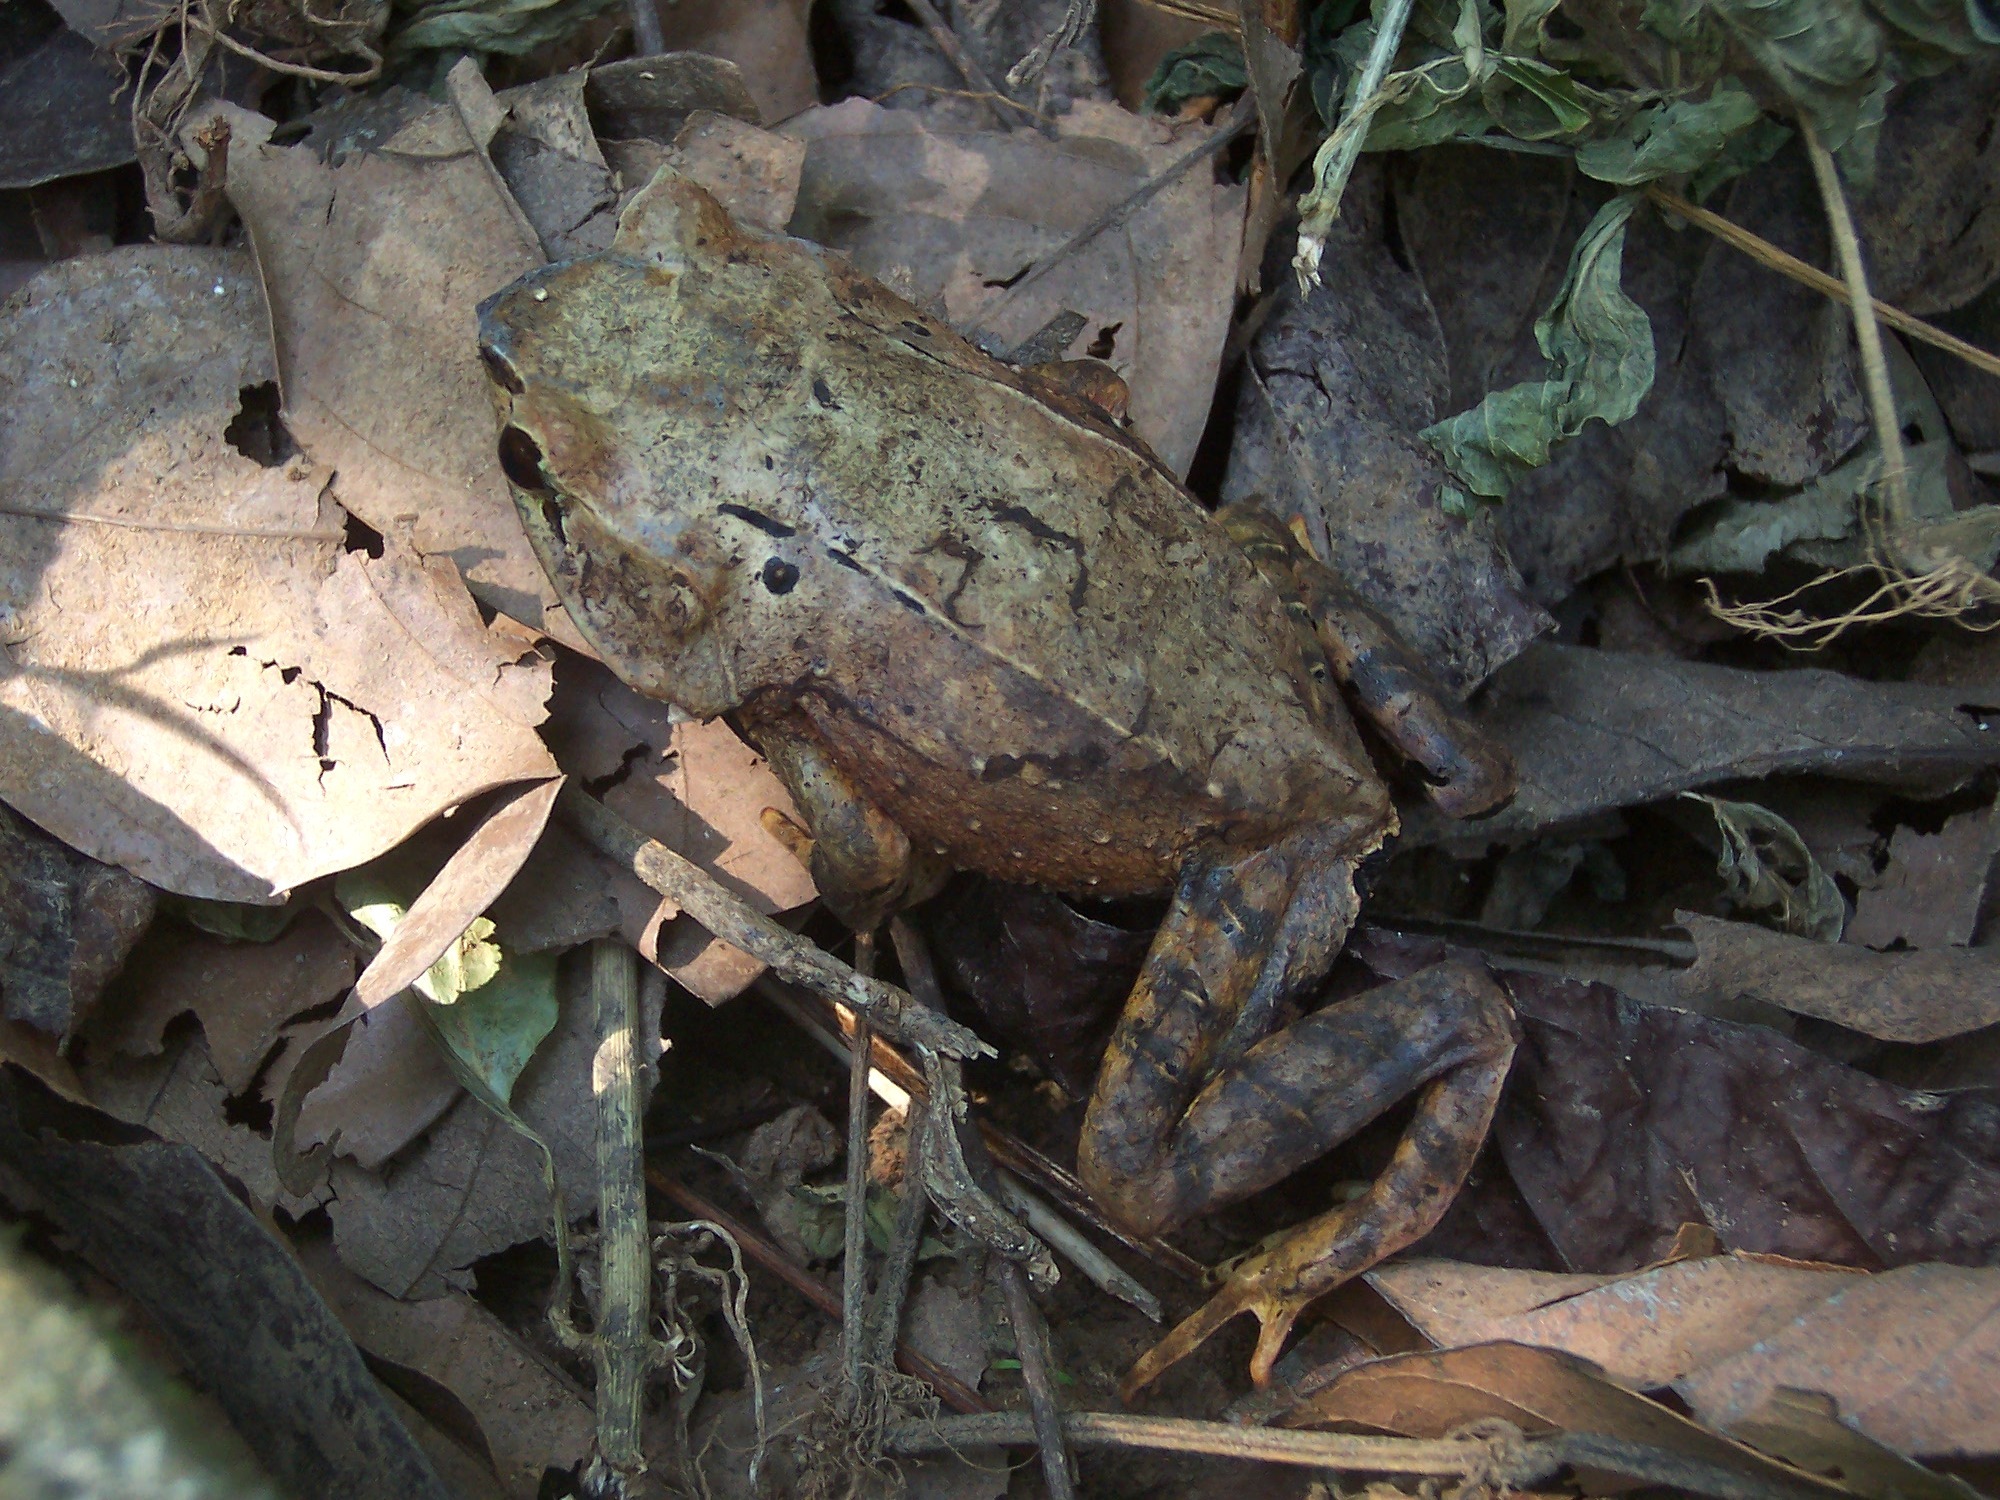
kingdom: Animalia
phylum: Chordata
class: Amphibia
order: Anura
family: Megophryidae
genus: Megophrys
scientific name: Megophrys montana
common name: Asian spadefoot toad
